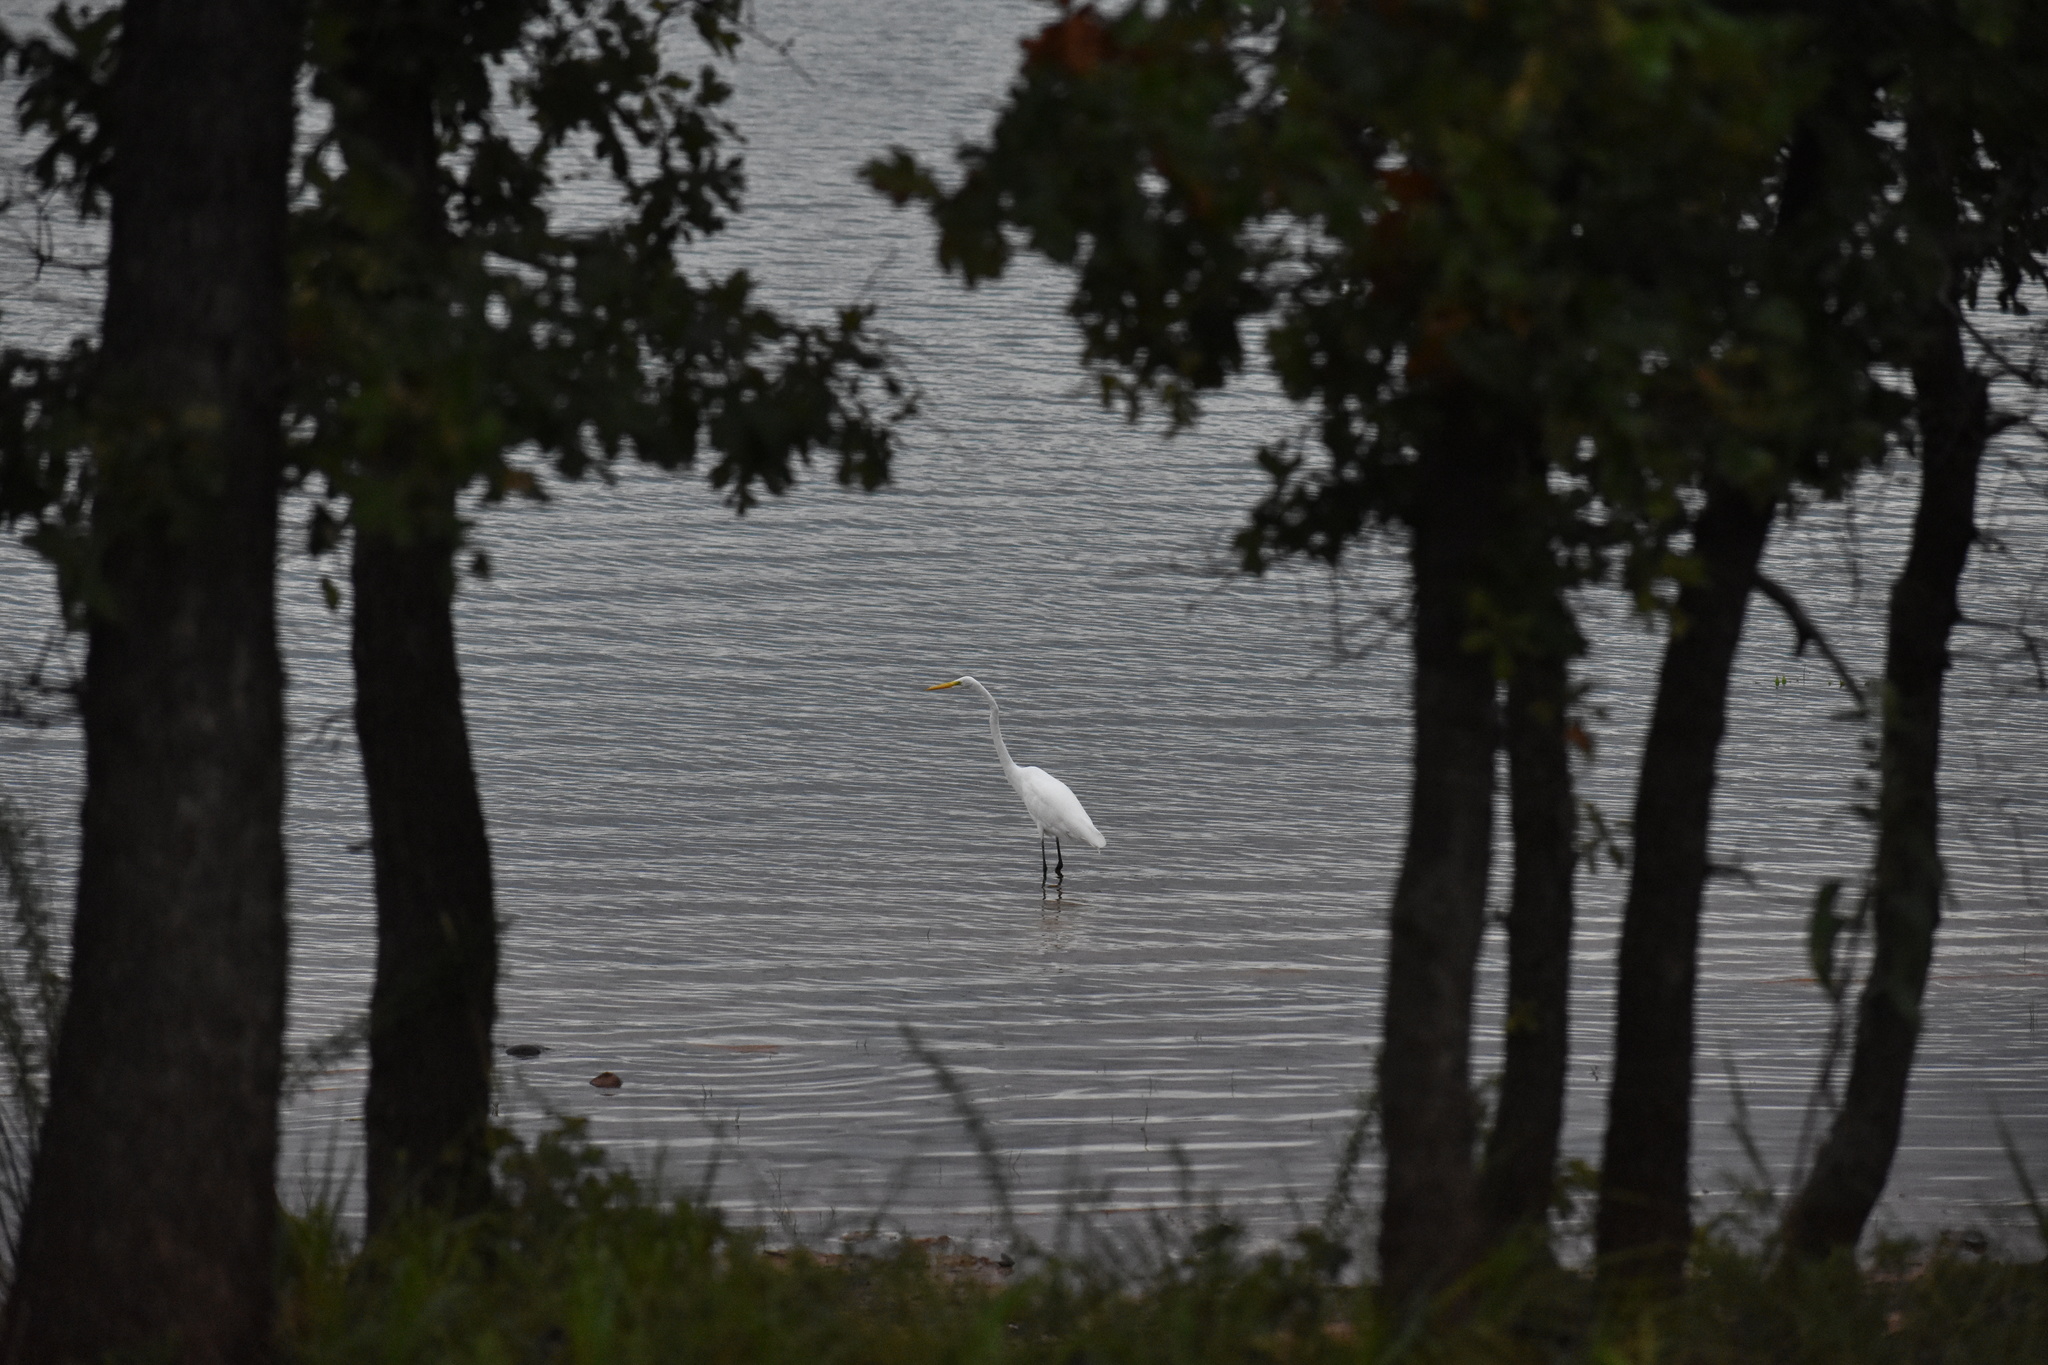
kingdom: Animalia
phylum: Chordata
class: Aves
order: Pelecaniformes
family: Ardeidae
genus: Ardea
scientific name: Ardea alba
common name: Great egret
